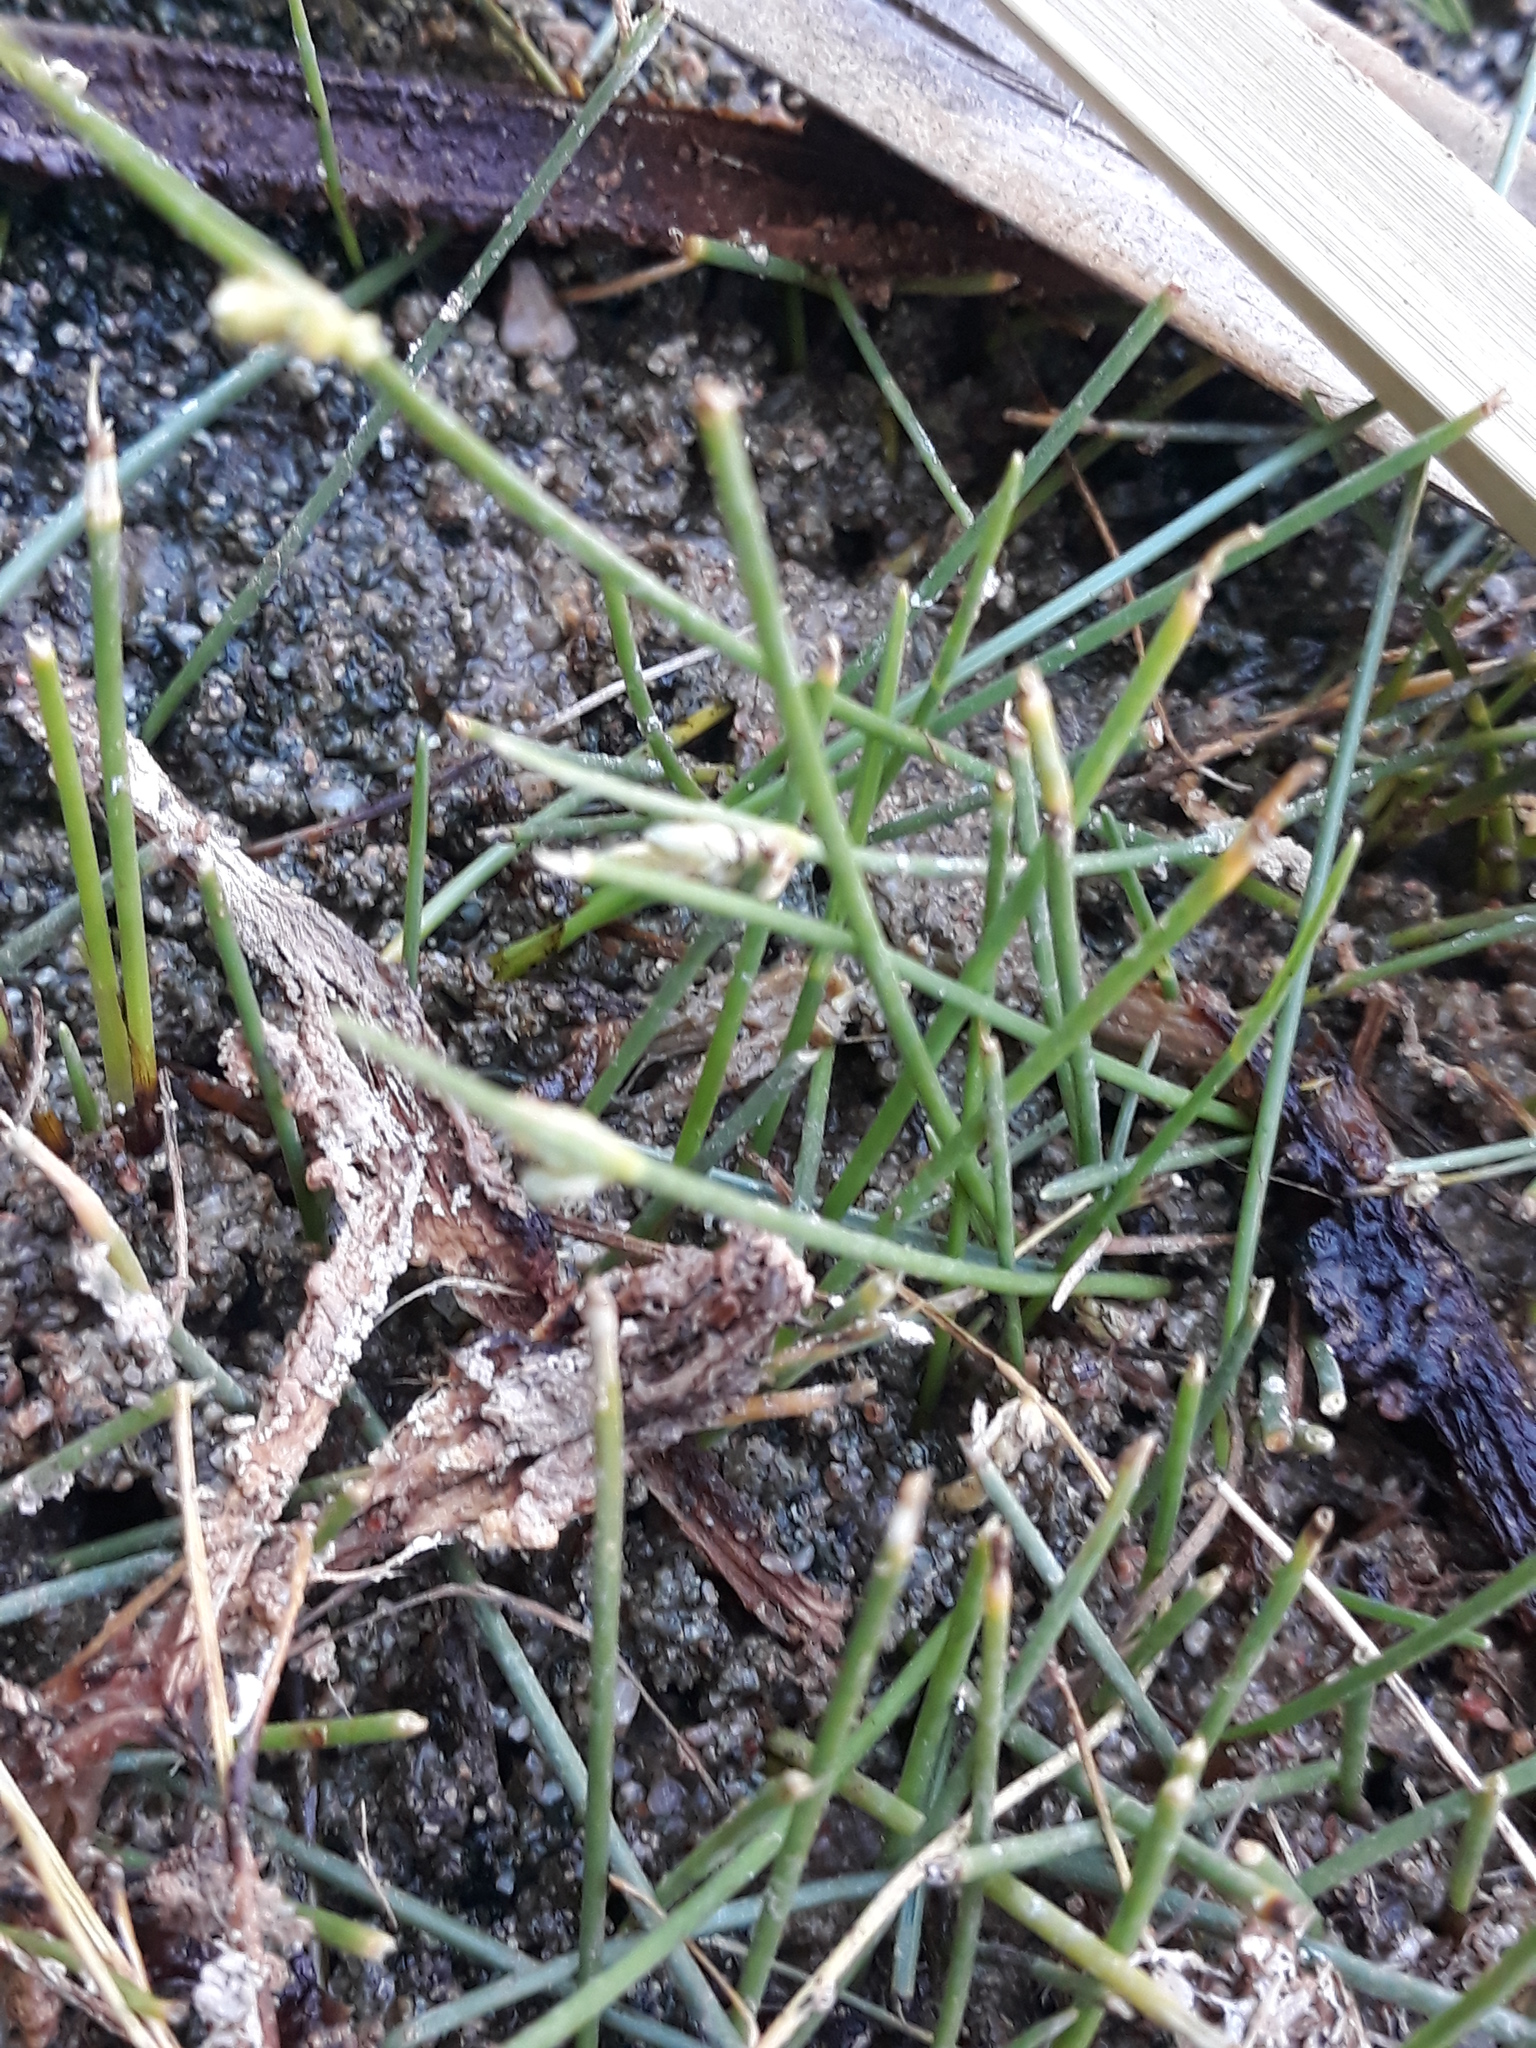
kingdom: Plantae
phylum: Tracheophyta
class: Liliopsida
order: Poales
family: Cyperaceae
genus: Cyperus
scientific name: Cyperus laevigatus
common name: Smooth flat sedge
